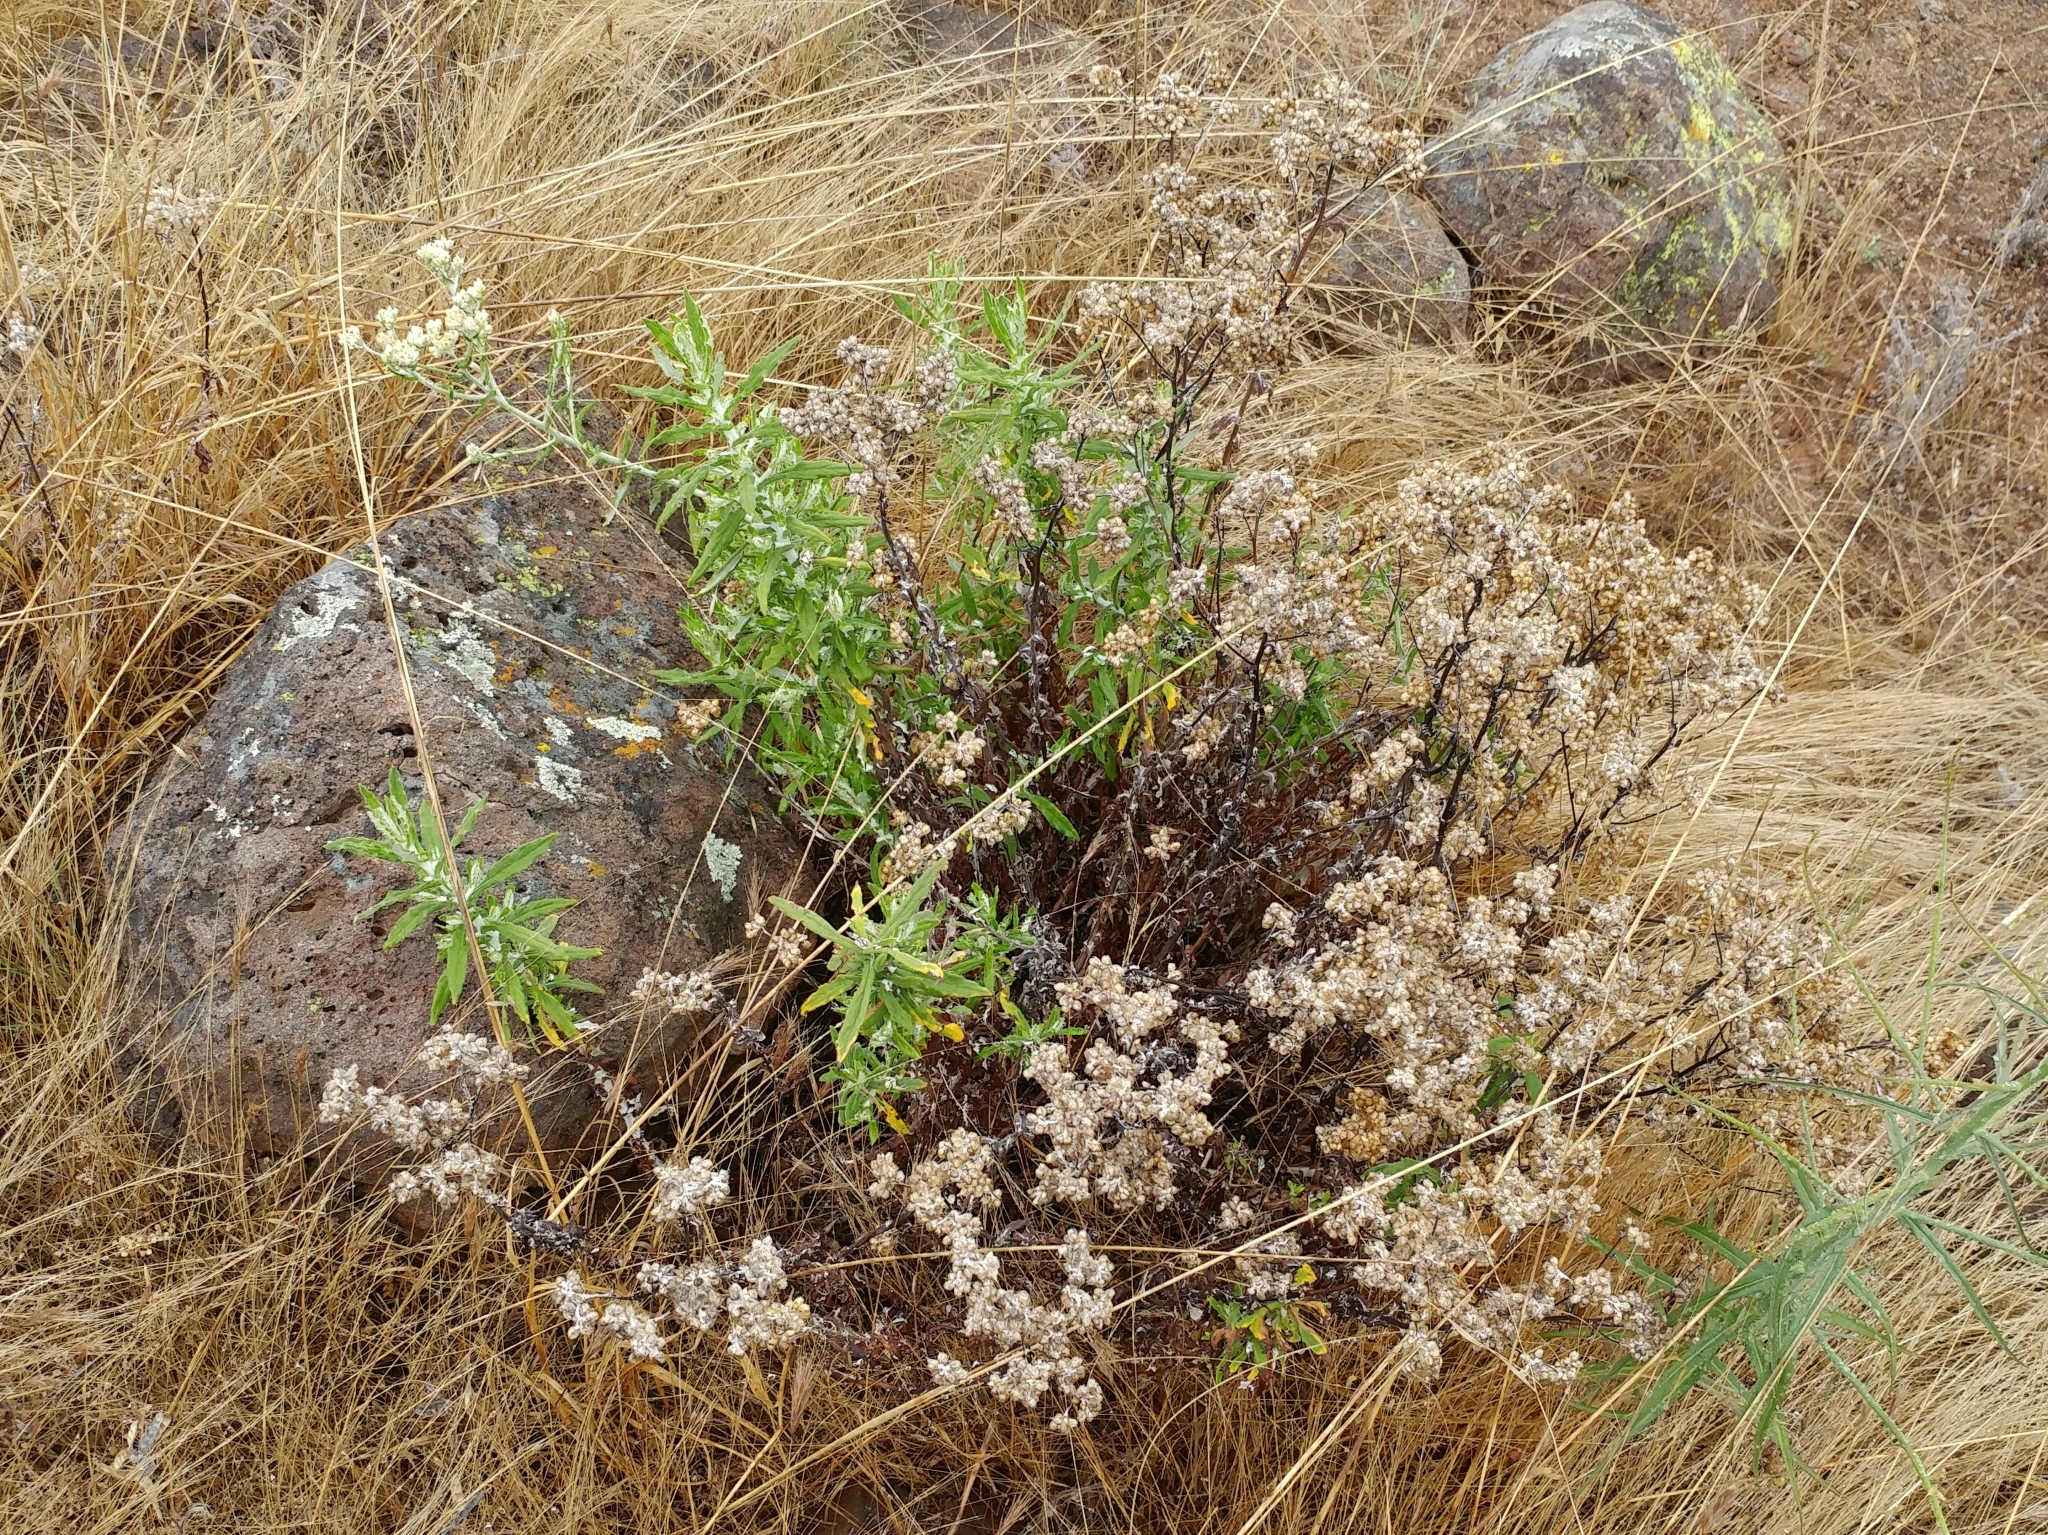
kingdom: Plantae
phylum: Tracheophyta
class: Magnoliopsida
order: Asterales
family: Asteraceae
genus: Pseudognaphalium
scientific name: Pseudognaphalium biolettii
